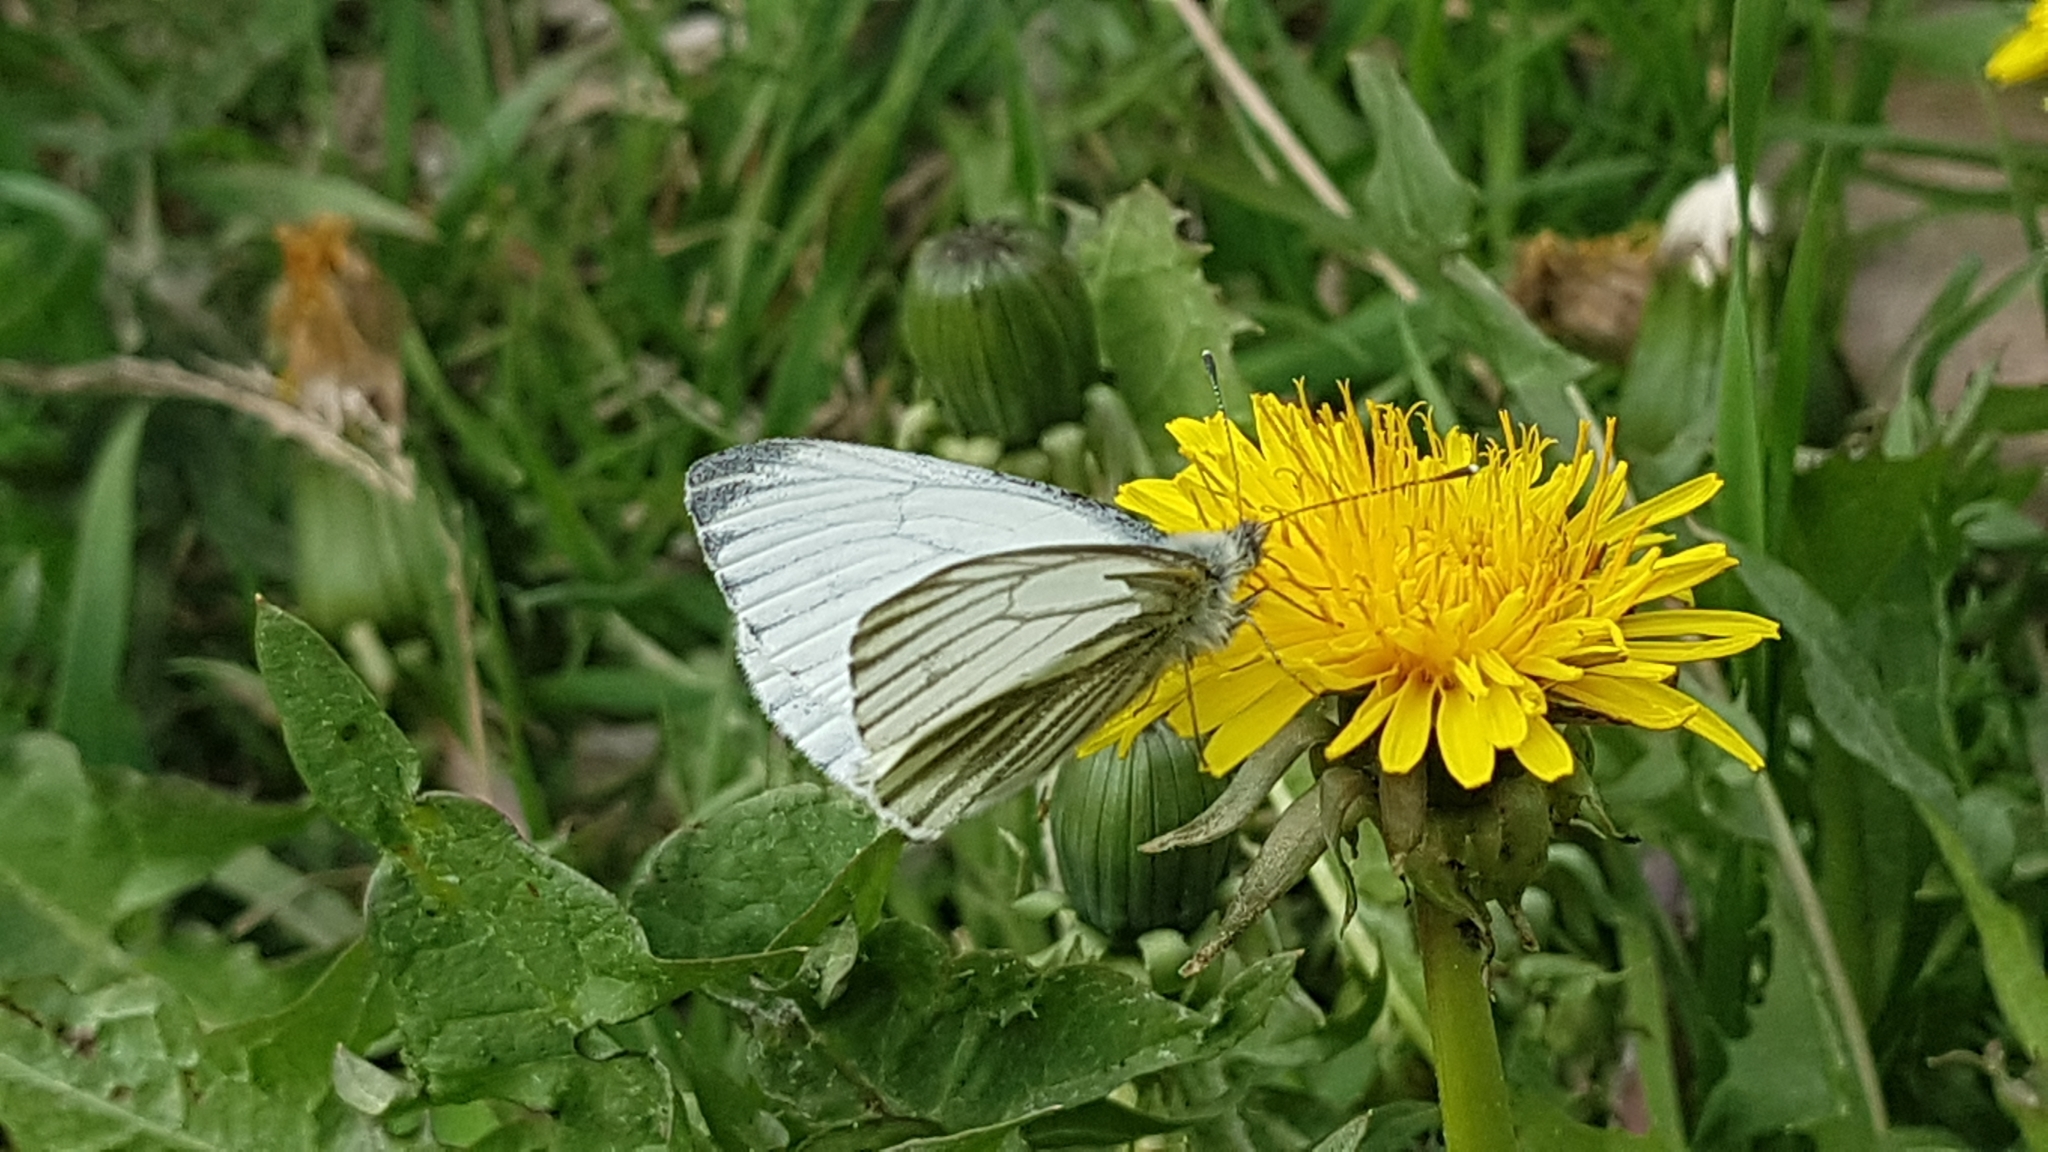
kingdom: Animalia
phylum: Arthropoda
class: Insecta
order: Lepidoptera
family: Pieridae
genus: Pieris
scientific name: Pieris napi
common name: Green-veined white
